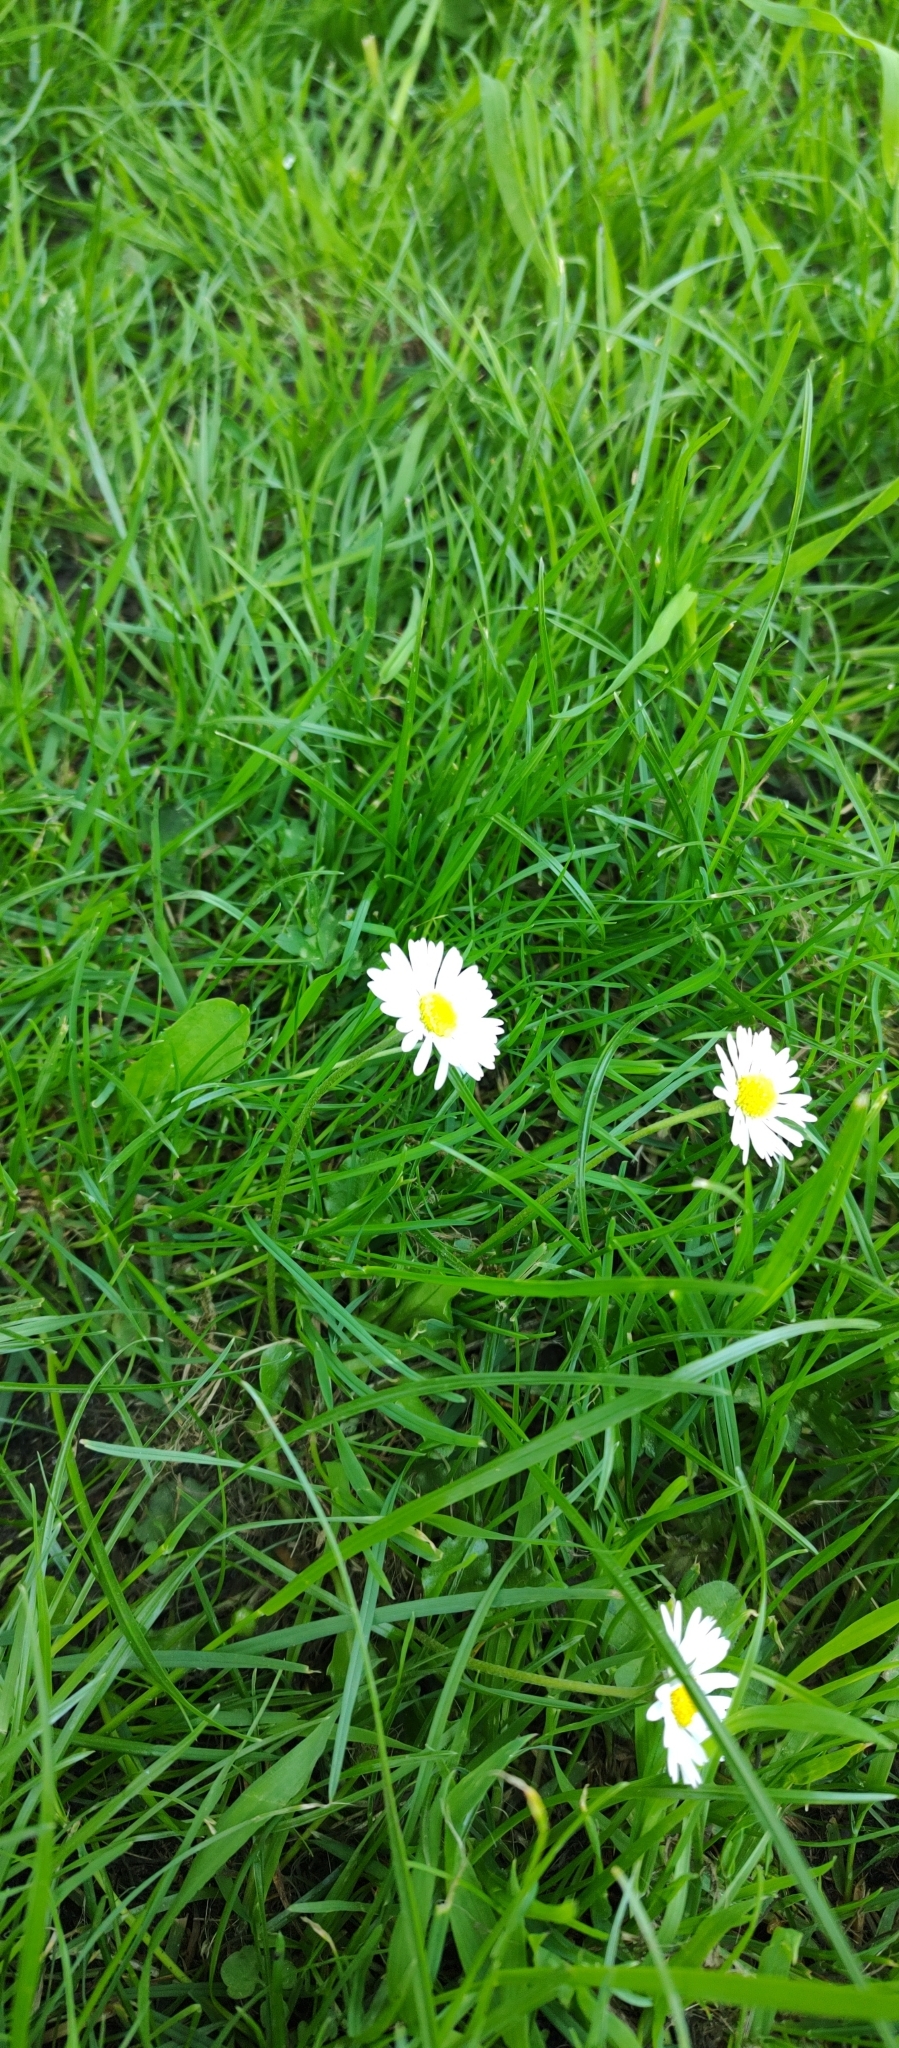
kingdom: Plantae
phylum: Tracheophyta
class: Magnoliopsida
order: Asterales
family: Asteraceae
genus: Bellis
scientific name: Bellis perennis
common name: Lawndaisy
